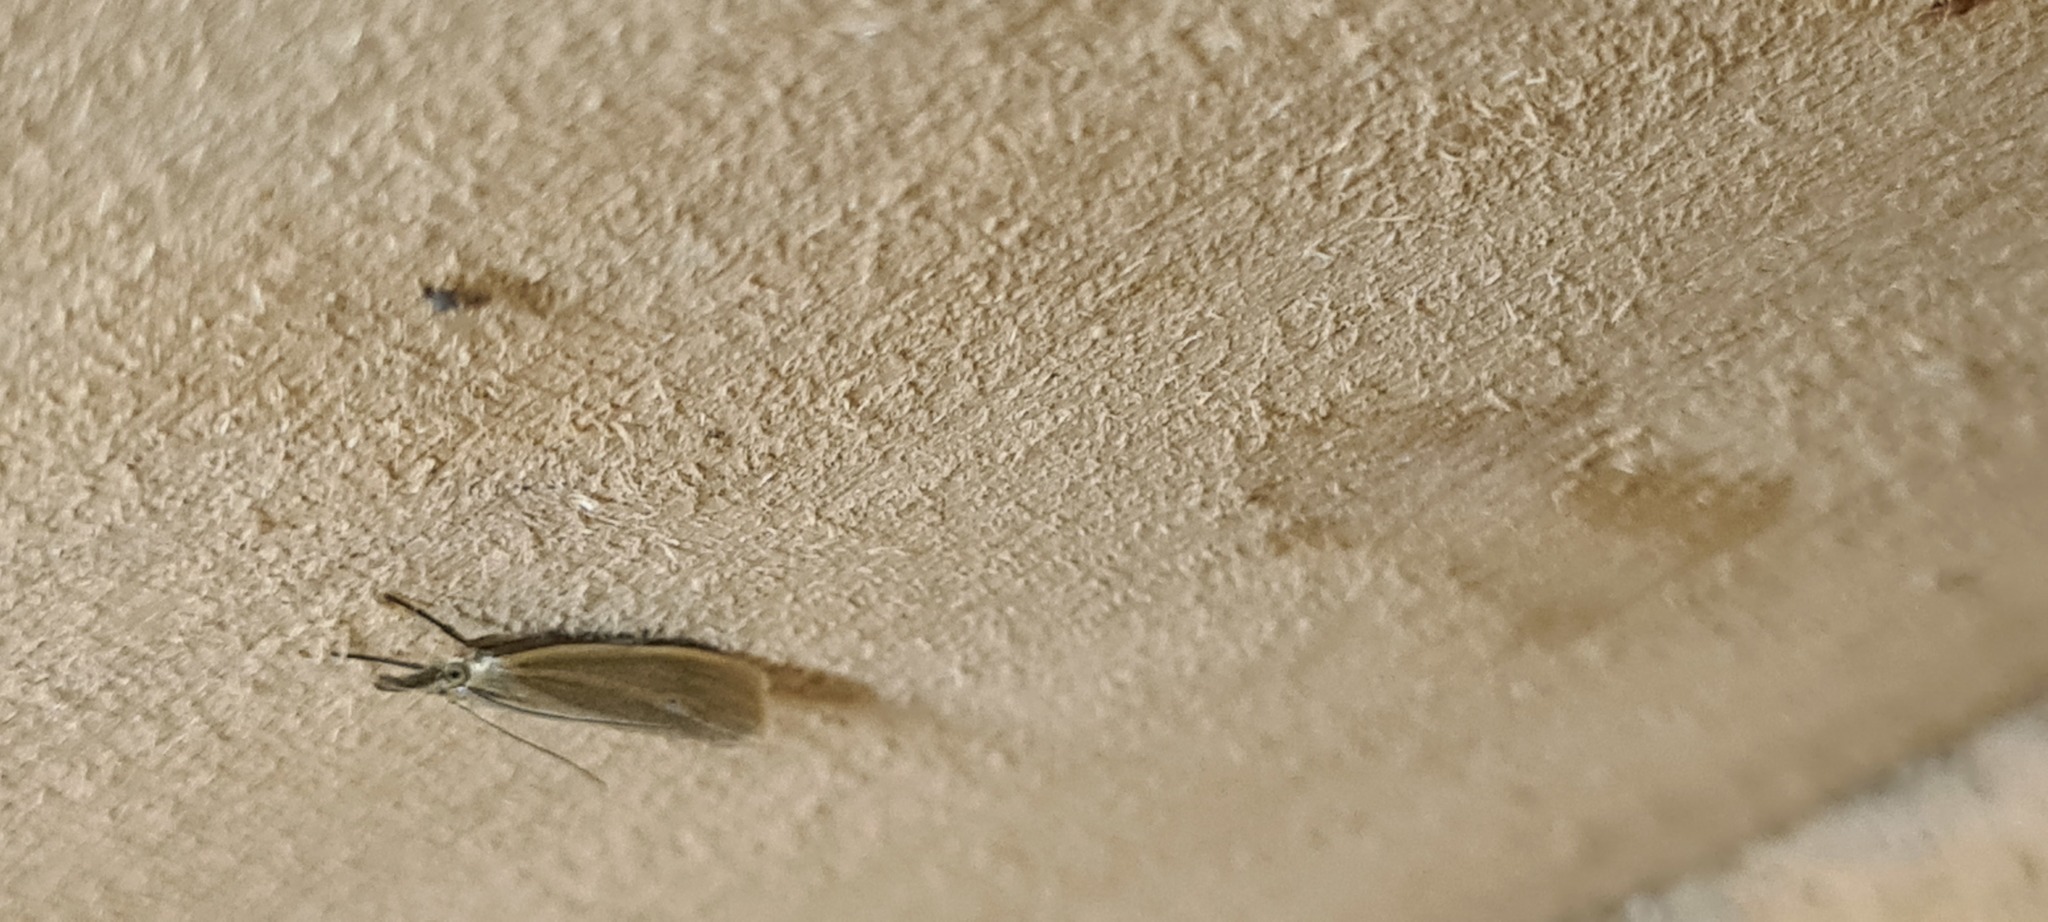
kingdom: Animalia
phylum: Arthropoda
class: Insecta
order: Lepidoptera
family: Crambidae
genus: Crambus
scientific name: Crambus perlellus
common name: Yellow satin veneer
